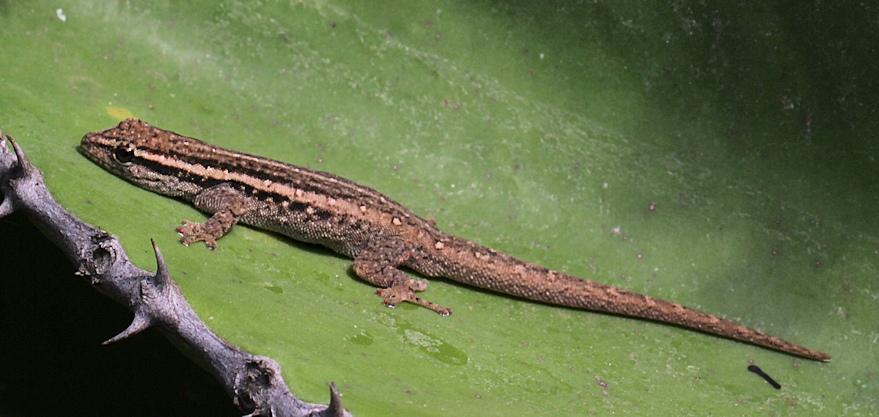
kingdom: Animalia
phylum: Chordata
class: Squamata
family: Gekkonidae
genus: Lygodactylus
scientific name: Lygodactylus capensis
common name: Cape dwarf gecko
